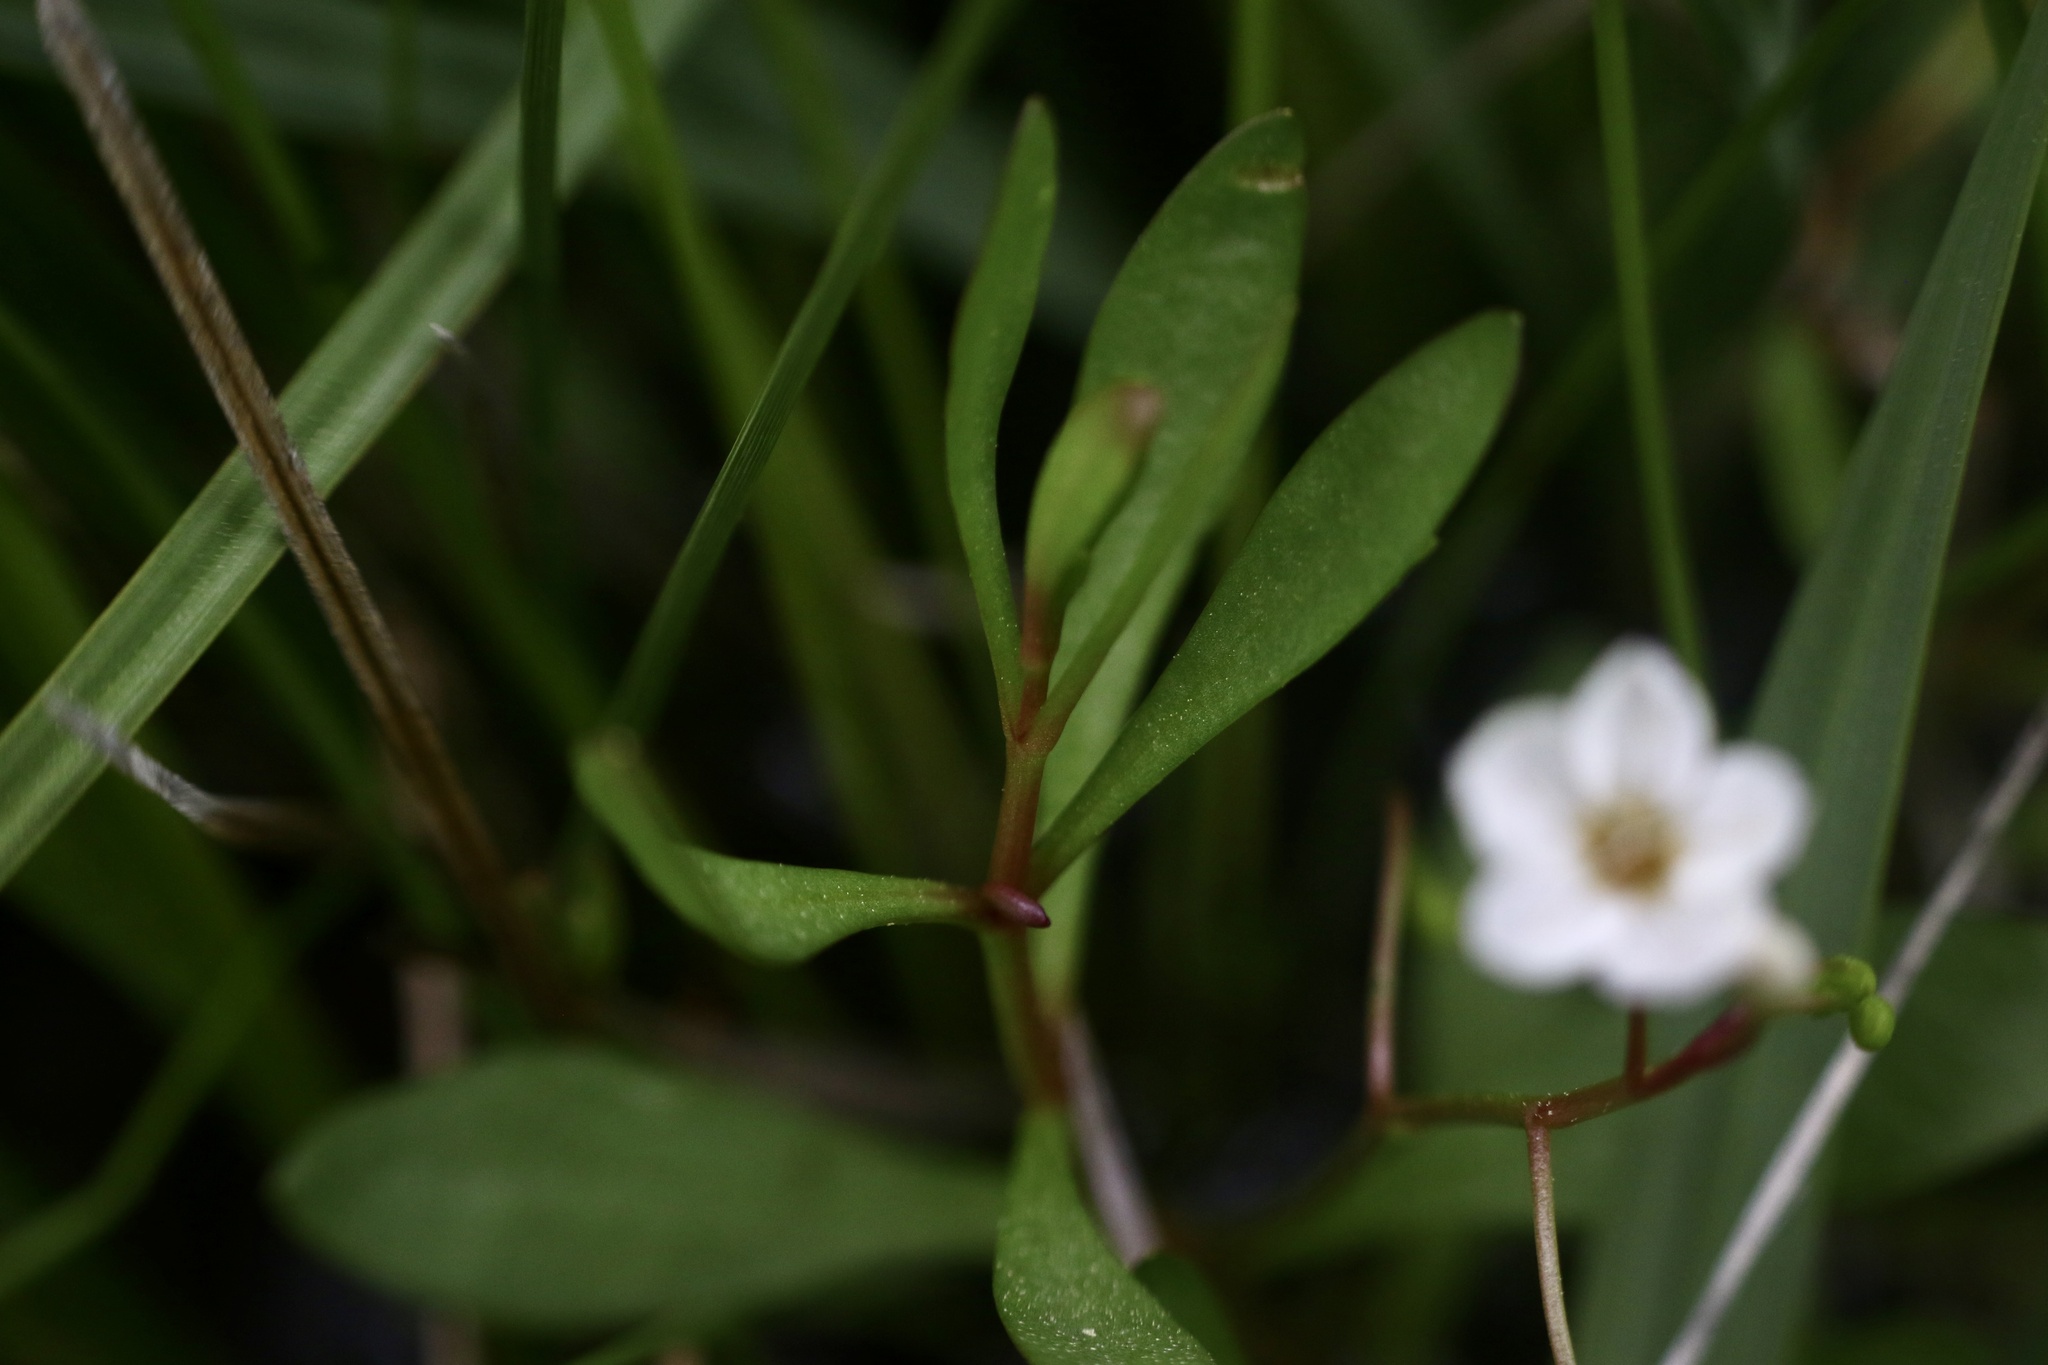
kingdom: Plantae
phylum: Tracheophyta
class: Magnoliopsida
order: Caryophyllales
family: Montiaceae
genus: Montia
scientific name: Montia chamissoi
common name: Chamisso's candyflower
